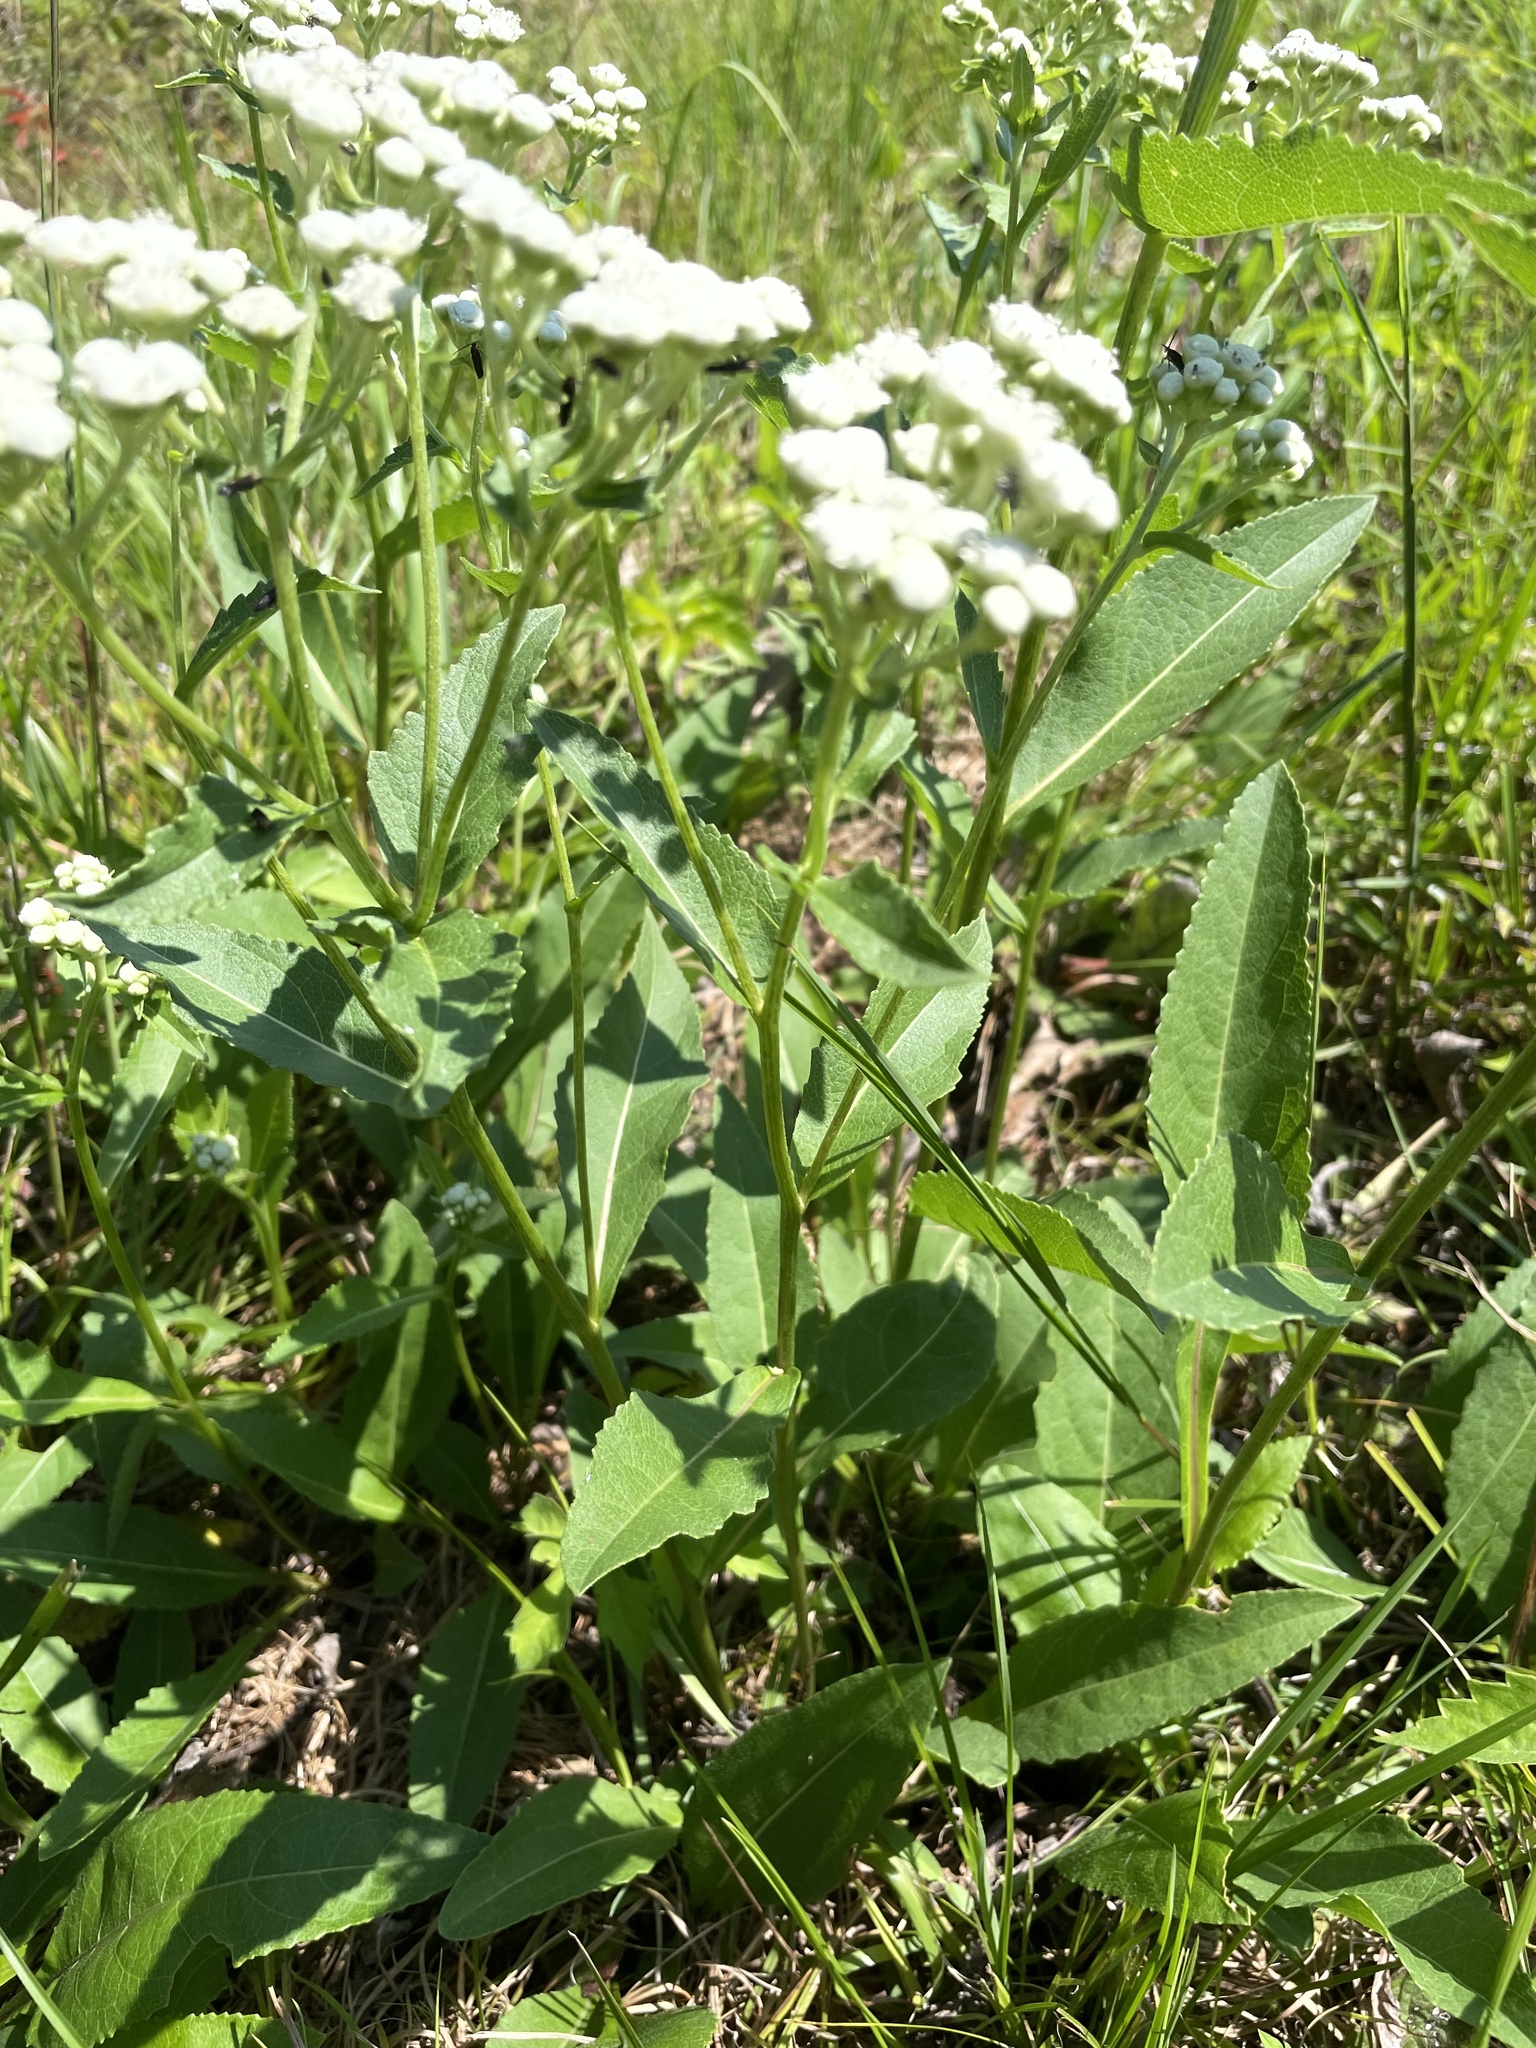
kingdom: Plantae
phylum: Tracheophyta
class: Magnoliopsida
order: Asterales
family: Asteraceae
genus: Parthenium
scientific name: Parthenium integrifolium
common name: American feverfew
